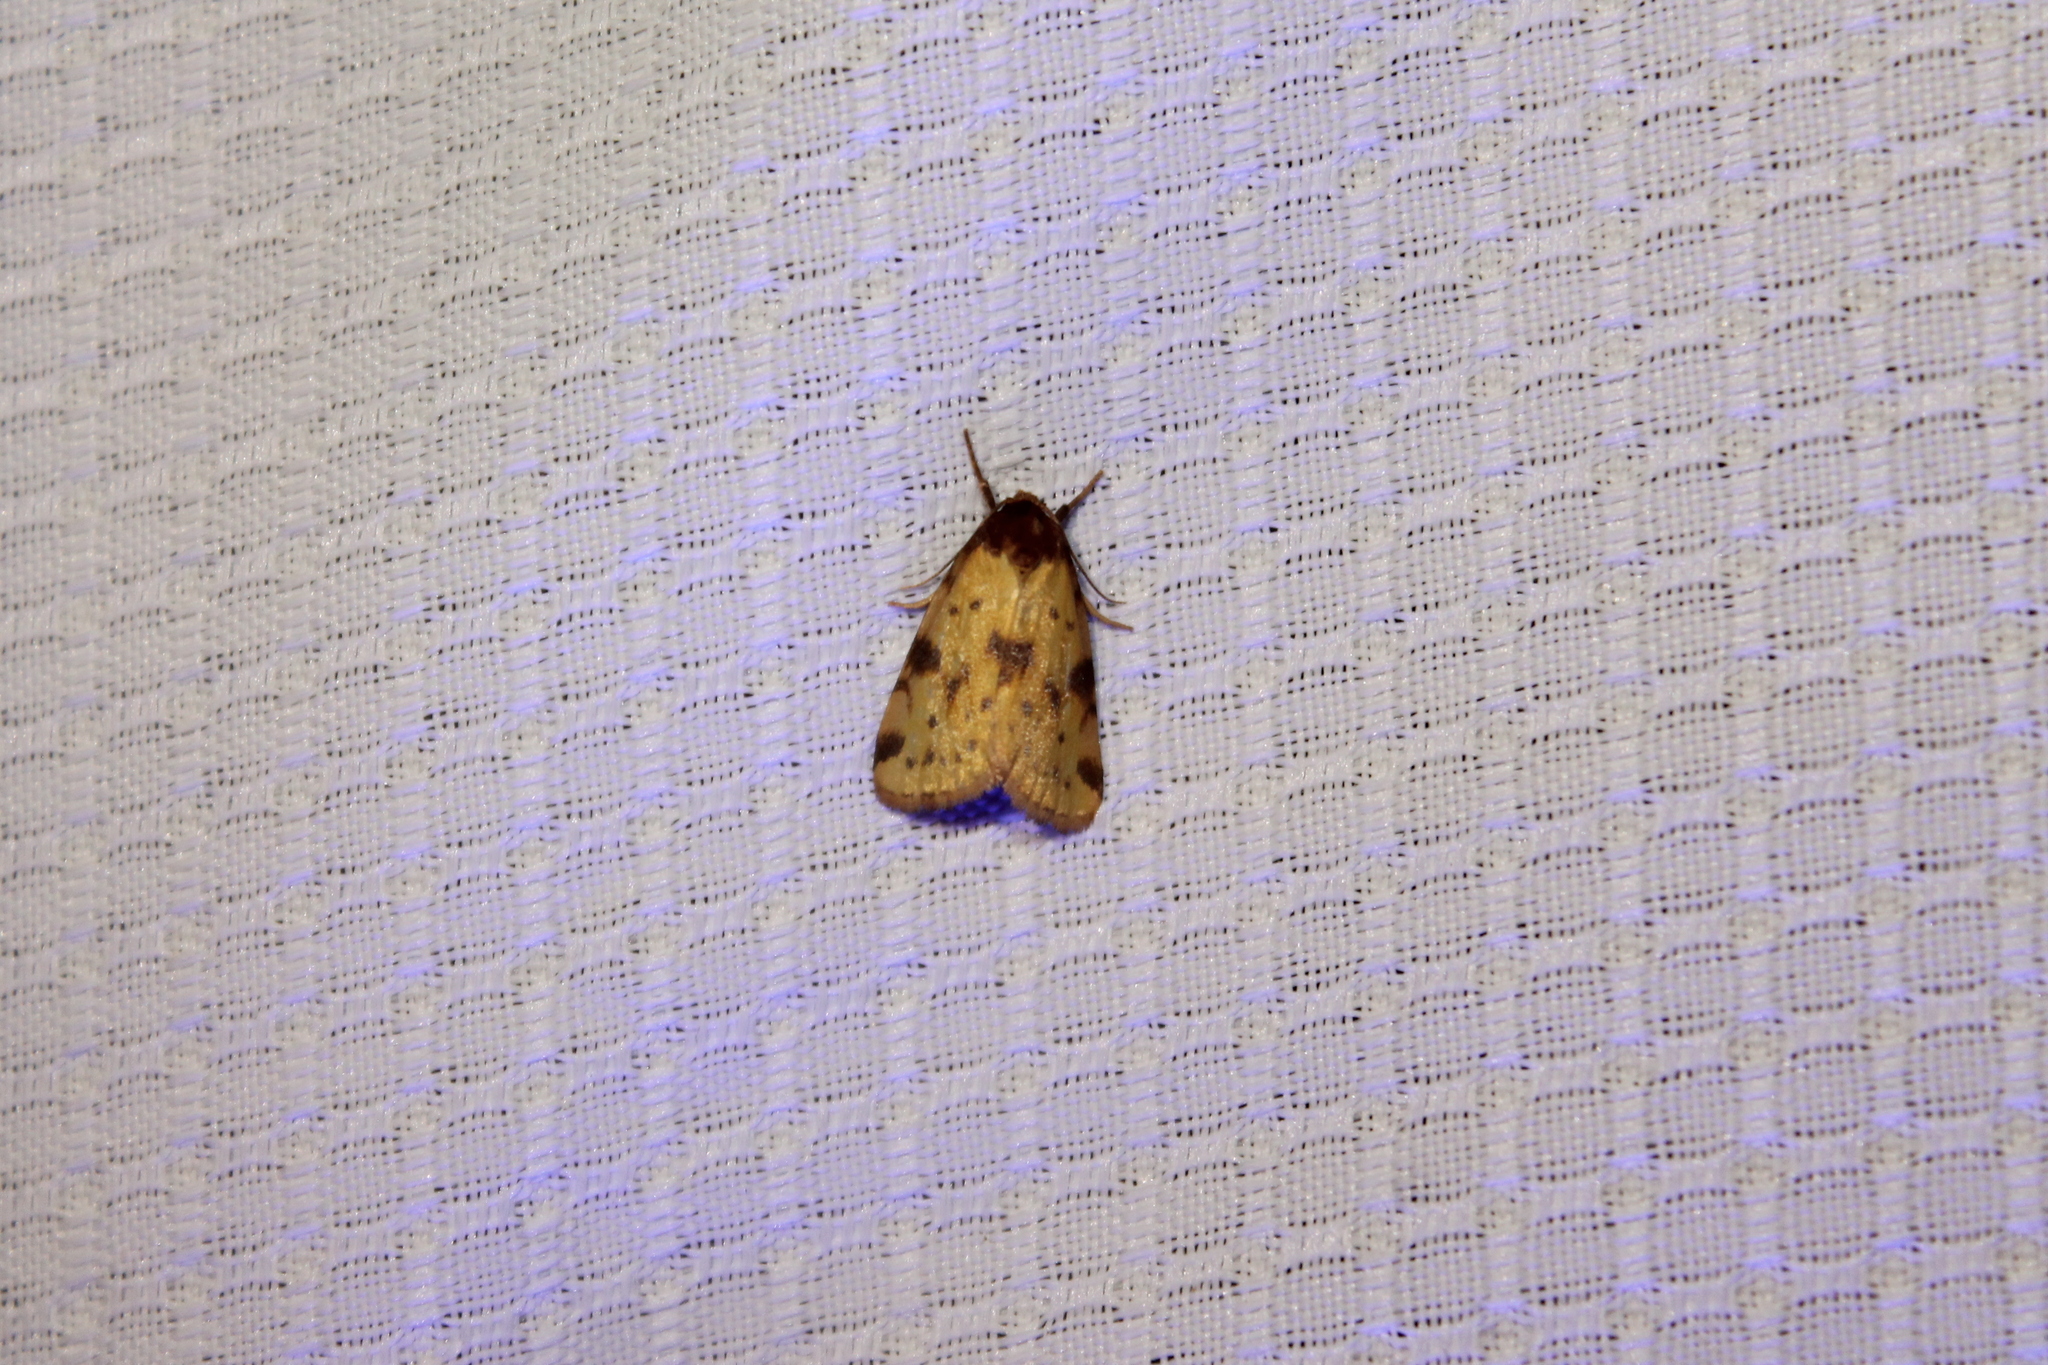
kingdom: Animalia
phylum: Arthropoda
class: Insecta
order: Lepidoptera
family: Noctuidae
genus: Azenia
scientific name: Azenia obtusa
